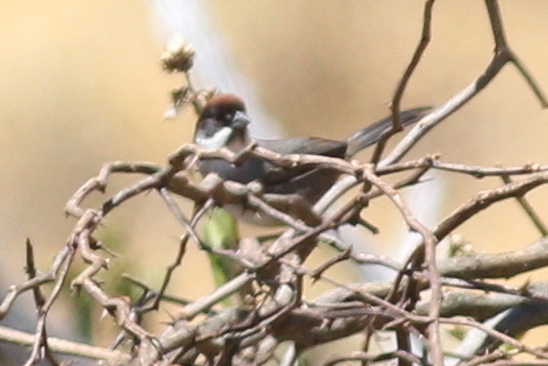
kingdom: Animalia
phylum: Chordata
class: Aves
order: Passeriformes
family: Passerellidae
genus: Atlapetes
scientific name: Atlapetes seebohmi
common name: Bay-crowned brushfinch
